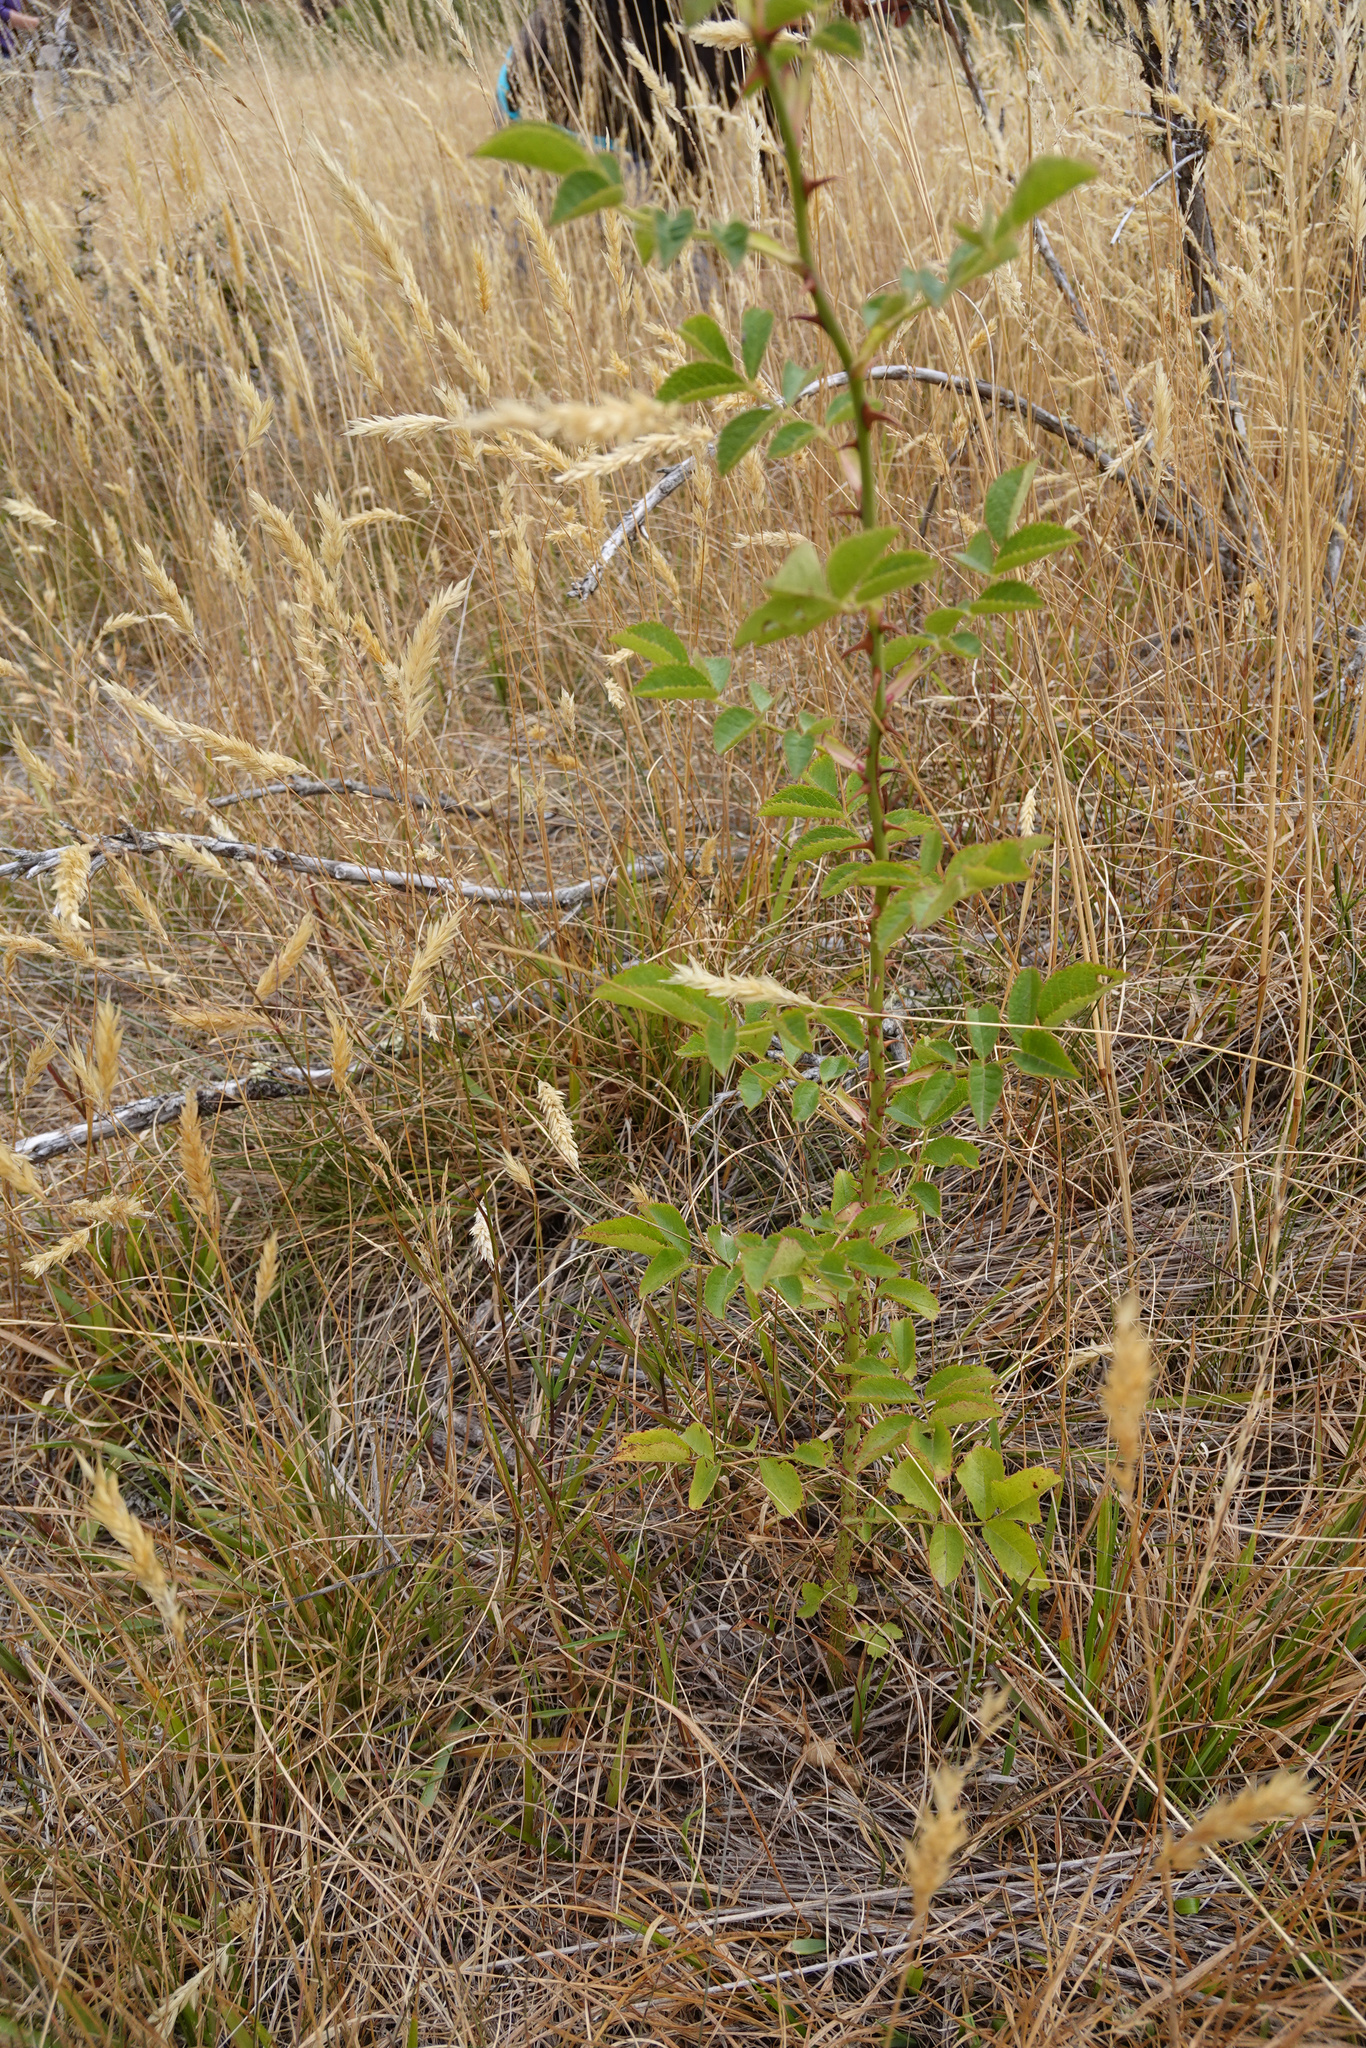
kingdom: Plantae
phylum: Tracheophyta
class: Magnoliopsida
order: Rosales
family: Rosaceae
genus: Rosa
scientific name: Rosa rubiginosa
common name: Sweet-briar
